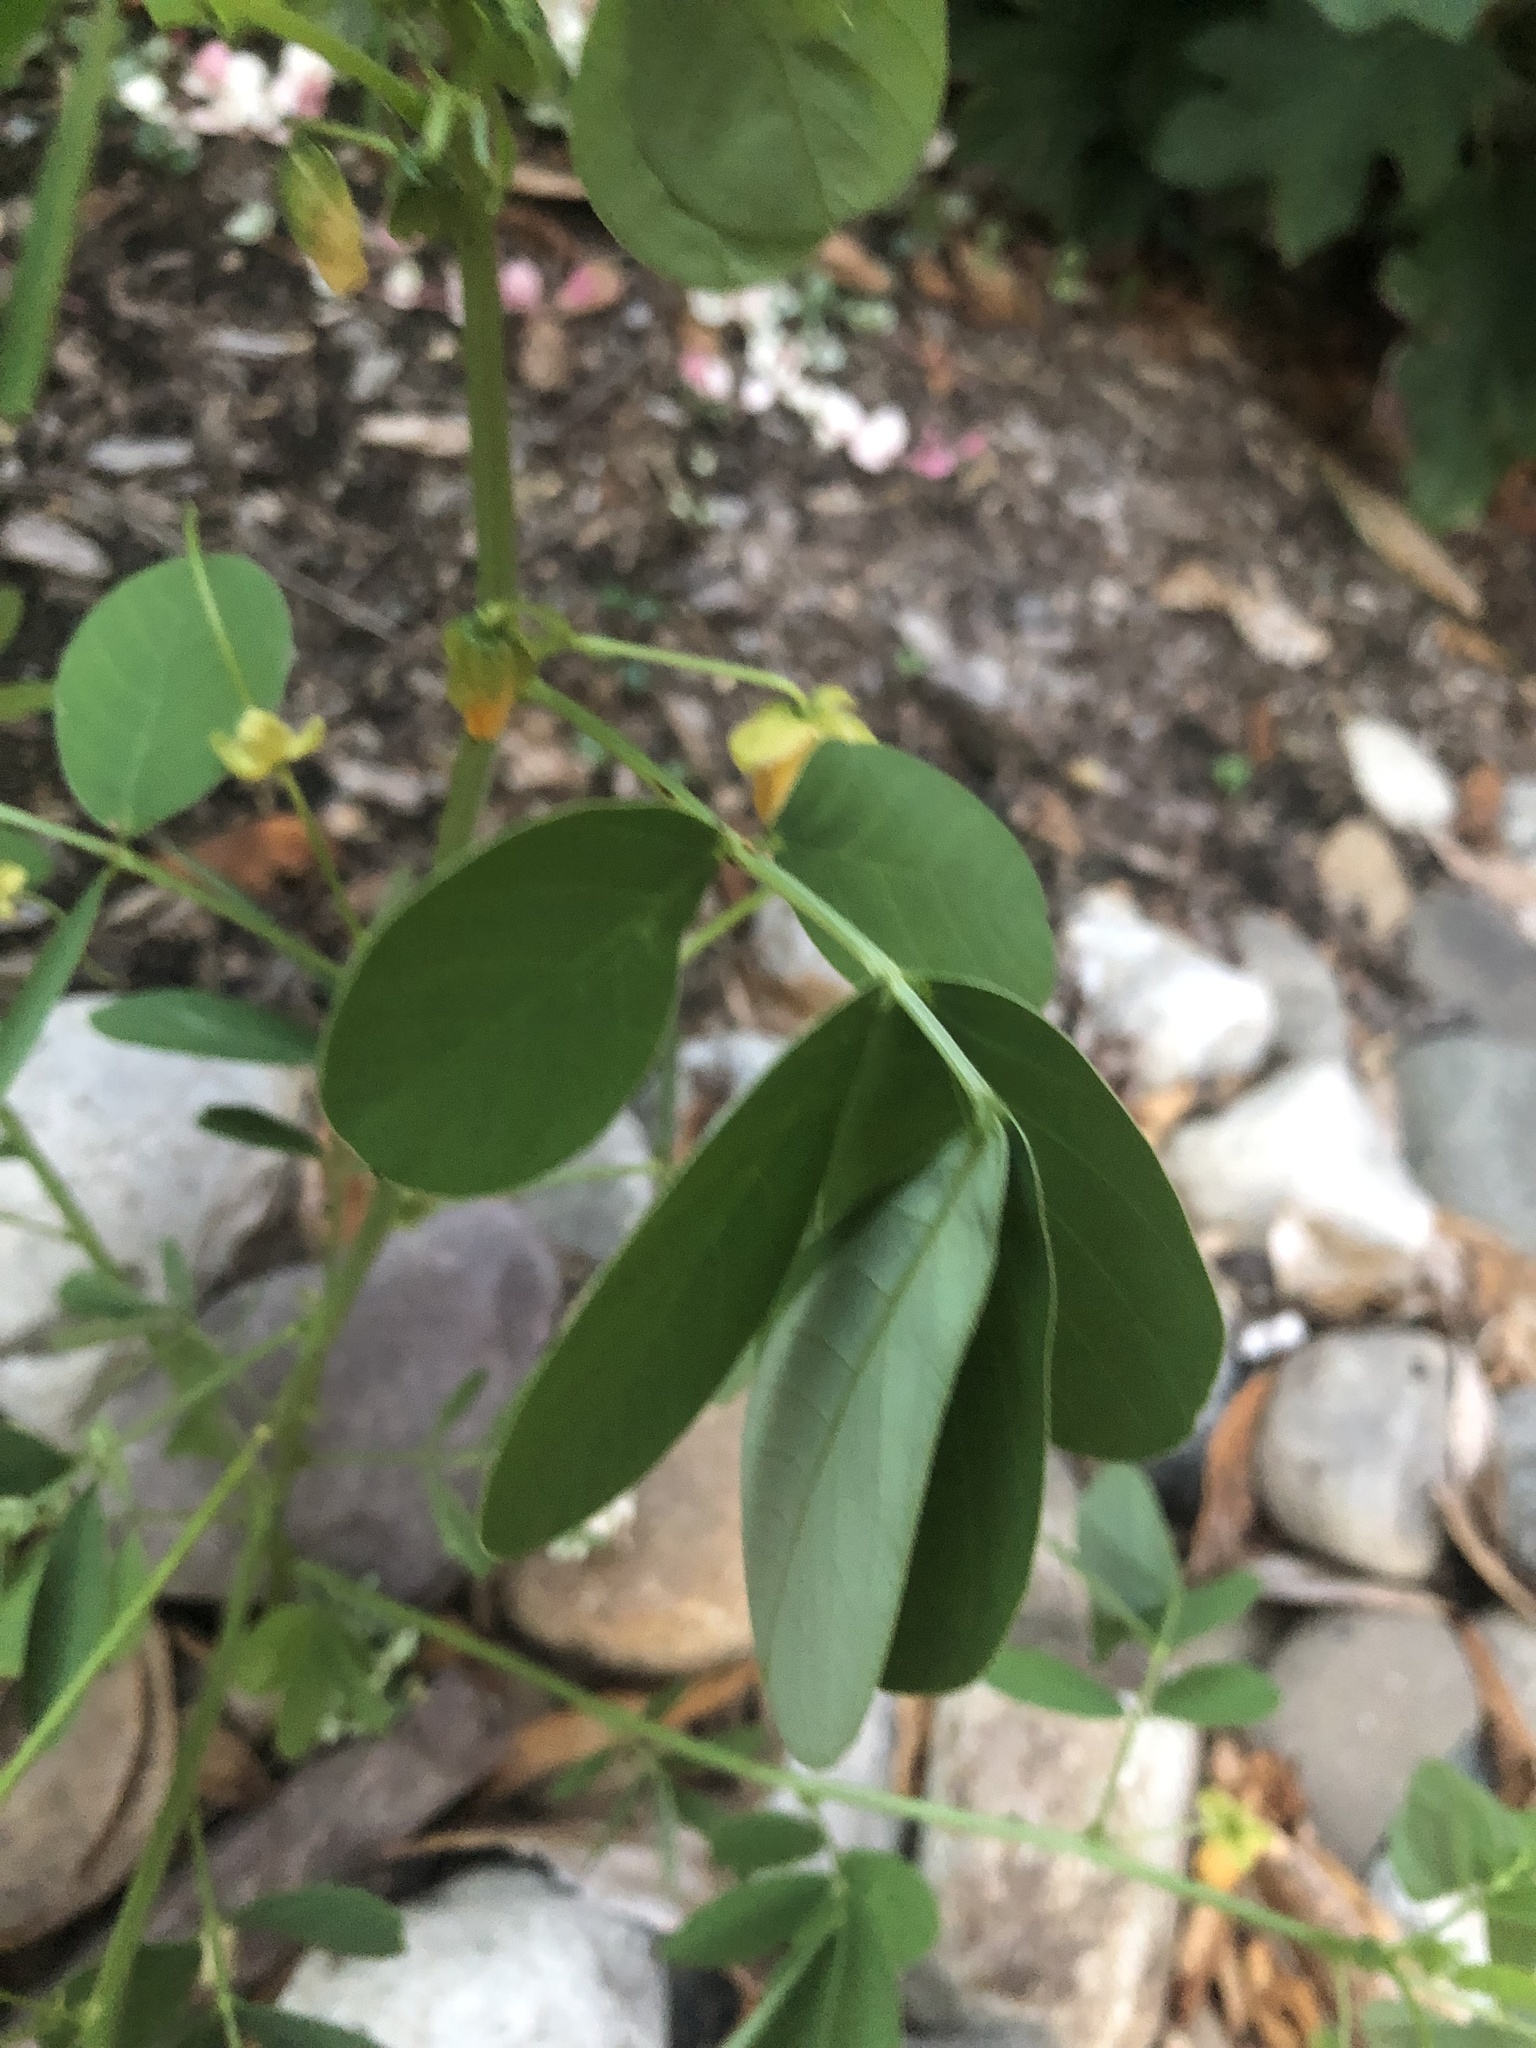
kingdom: Plantae
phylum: Tracheophyta
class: Magnoliopsida
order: Fabales
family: Fabaceae
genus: Senna
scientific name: Senna obtusifolia
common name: Java-bean
